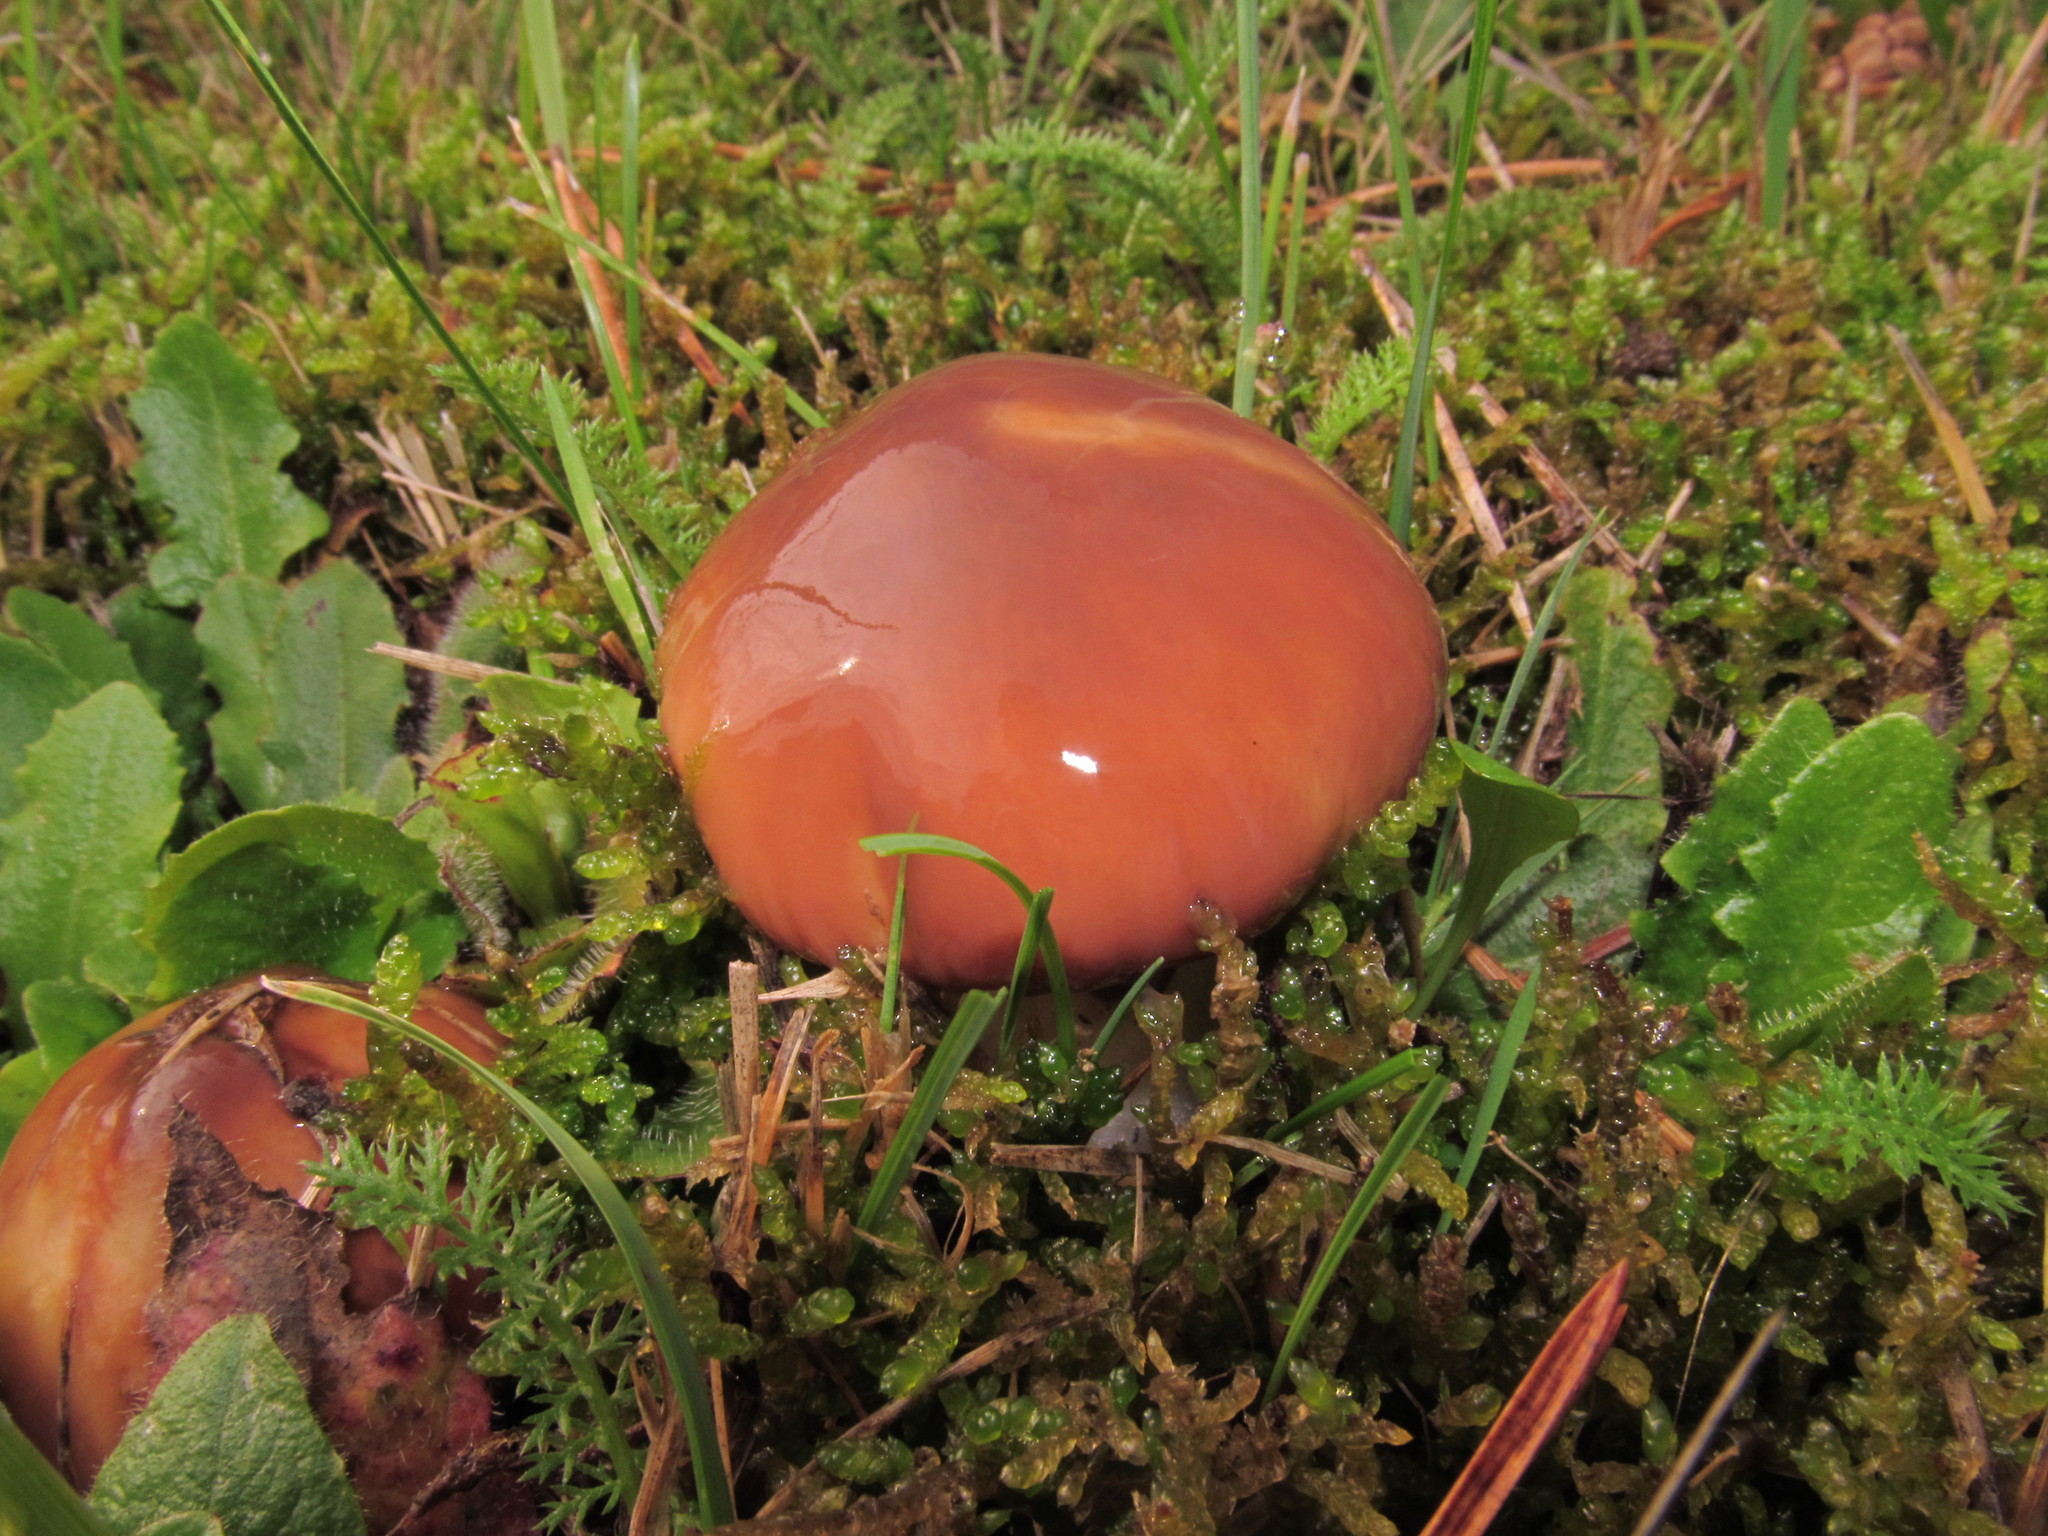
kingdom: Fungi
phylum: Basidiomycota
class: Agaricomycetes
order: Boletales
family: Suillaceae
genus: Suillus
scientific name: Suillus luteus
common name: Slippery jack
